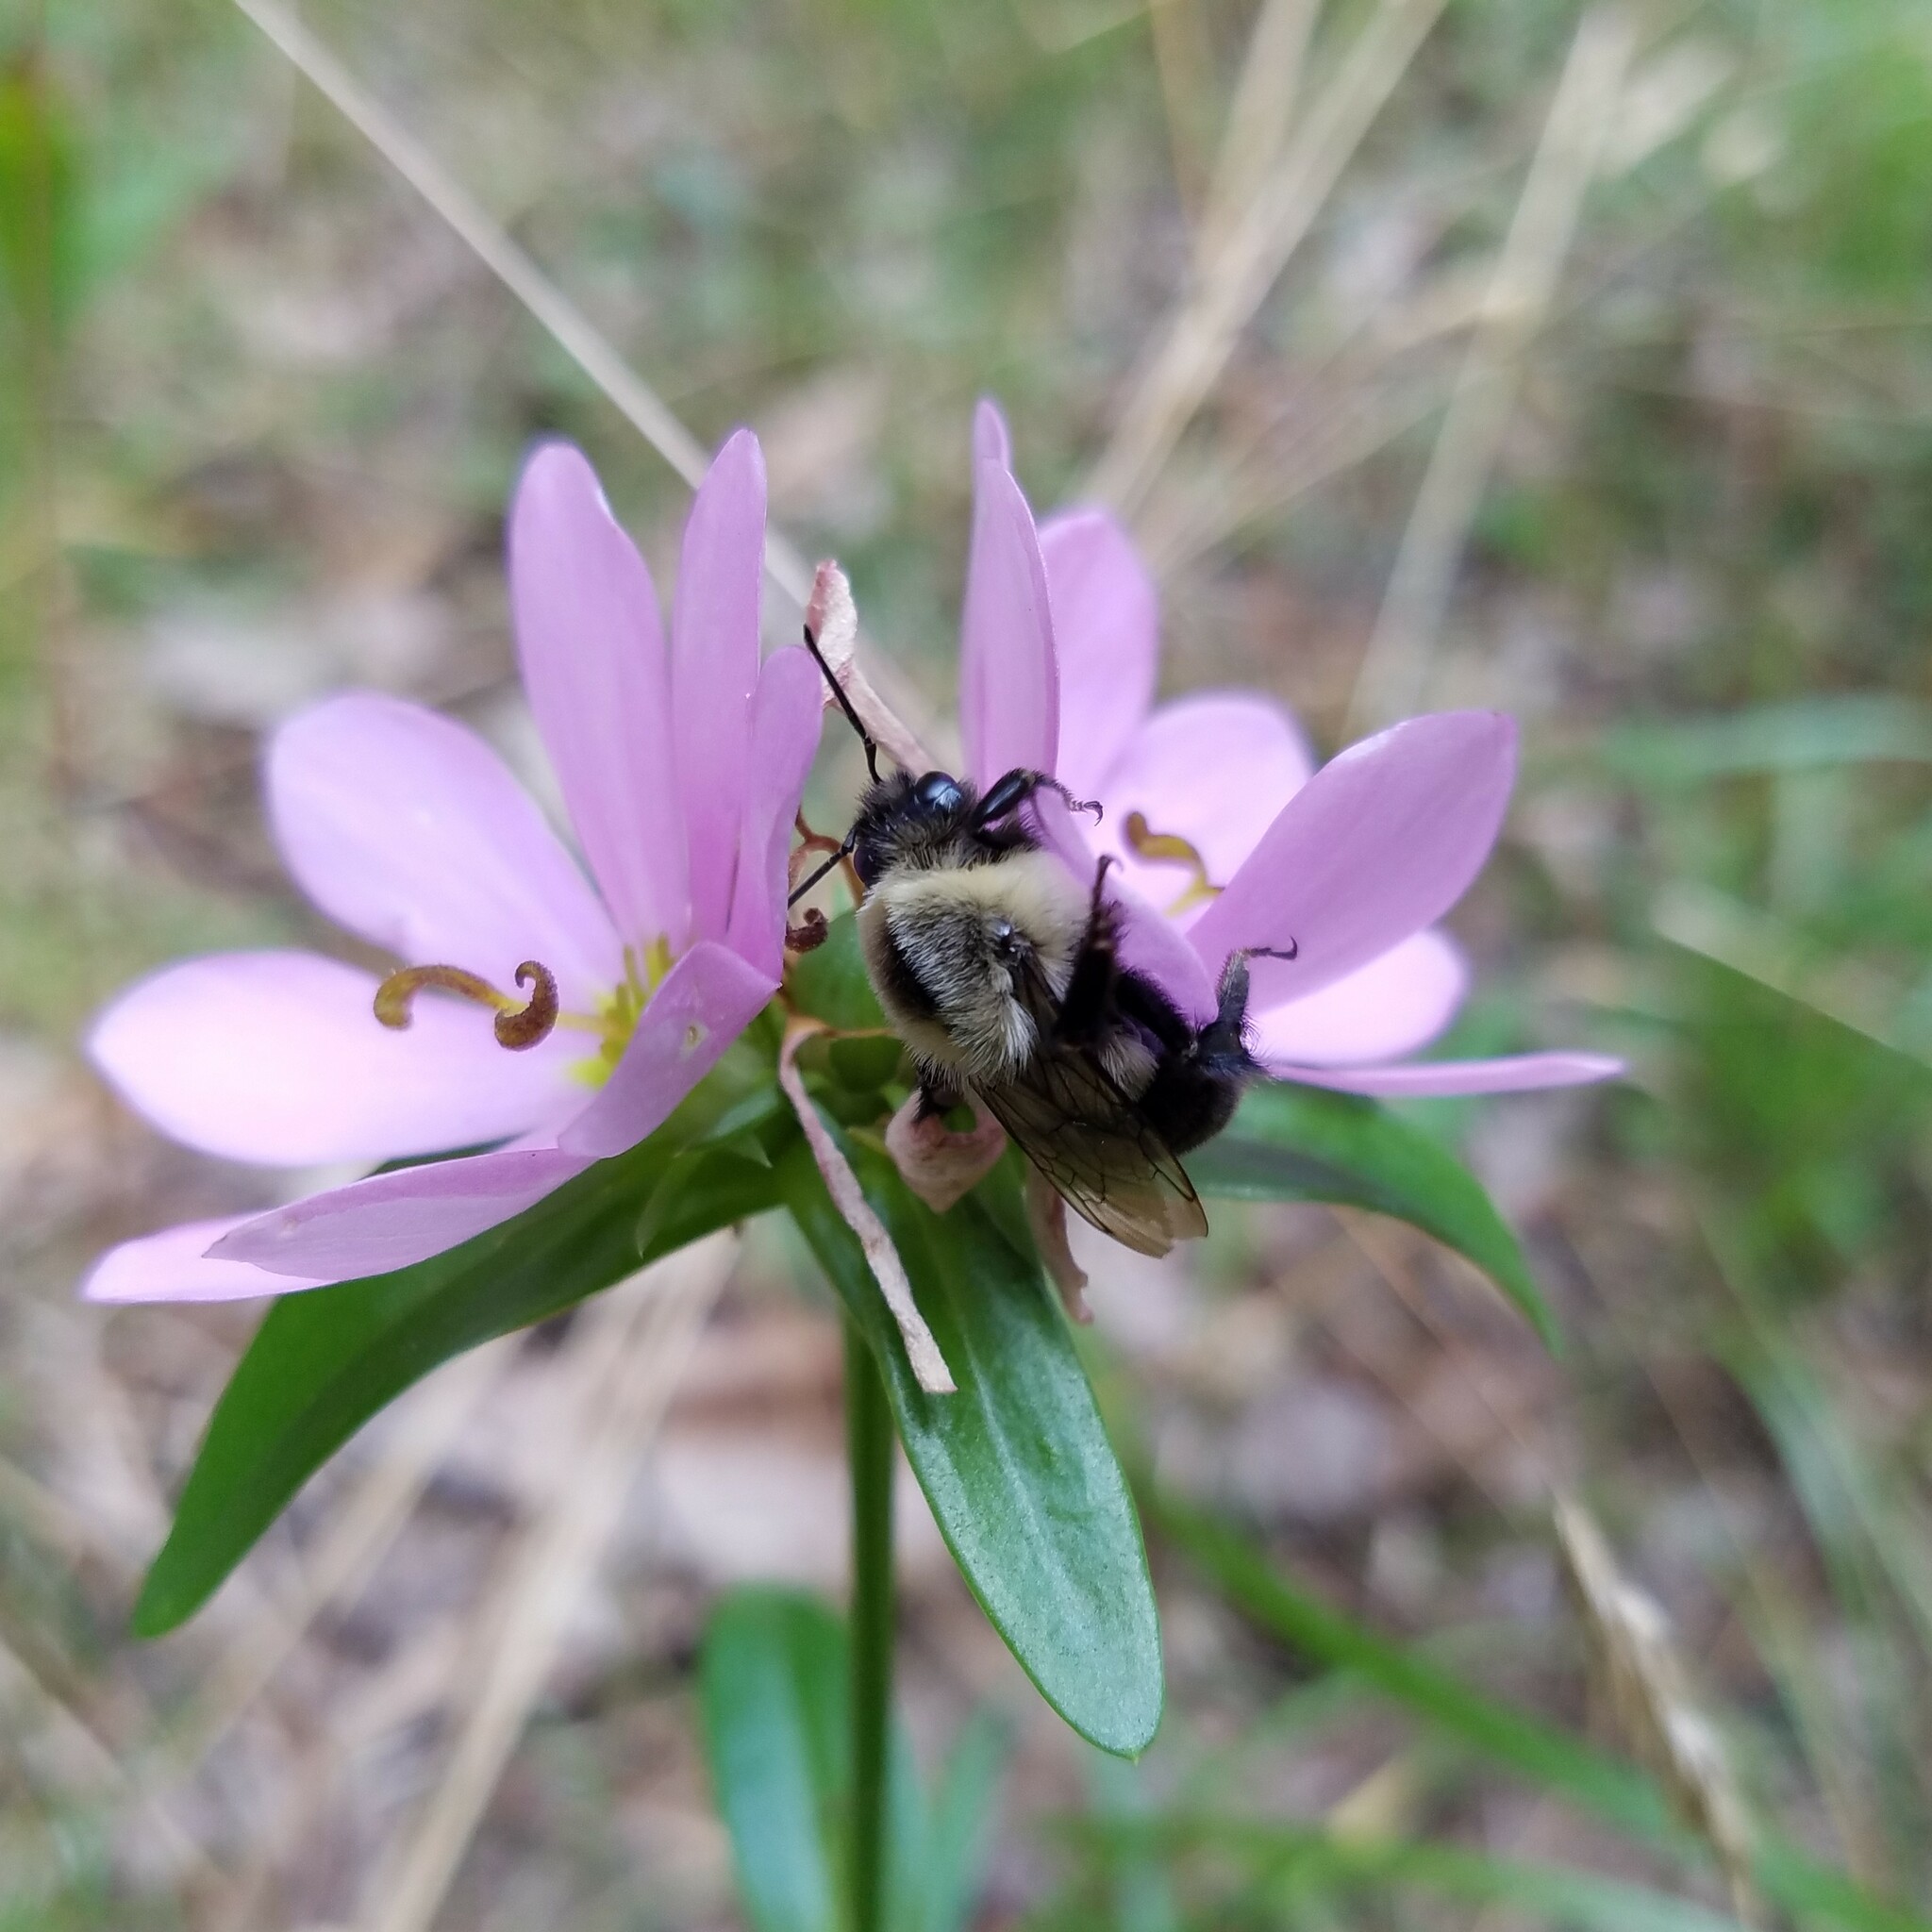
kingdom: Animalia
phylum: Arthropoda
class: Insecta
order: Hymenoptera
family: Apidae
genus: Bombus
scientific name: Bombus impatiens
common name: Common eastern bumble bee
